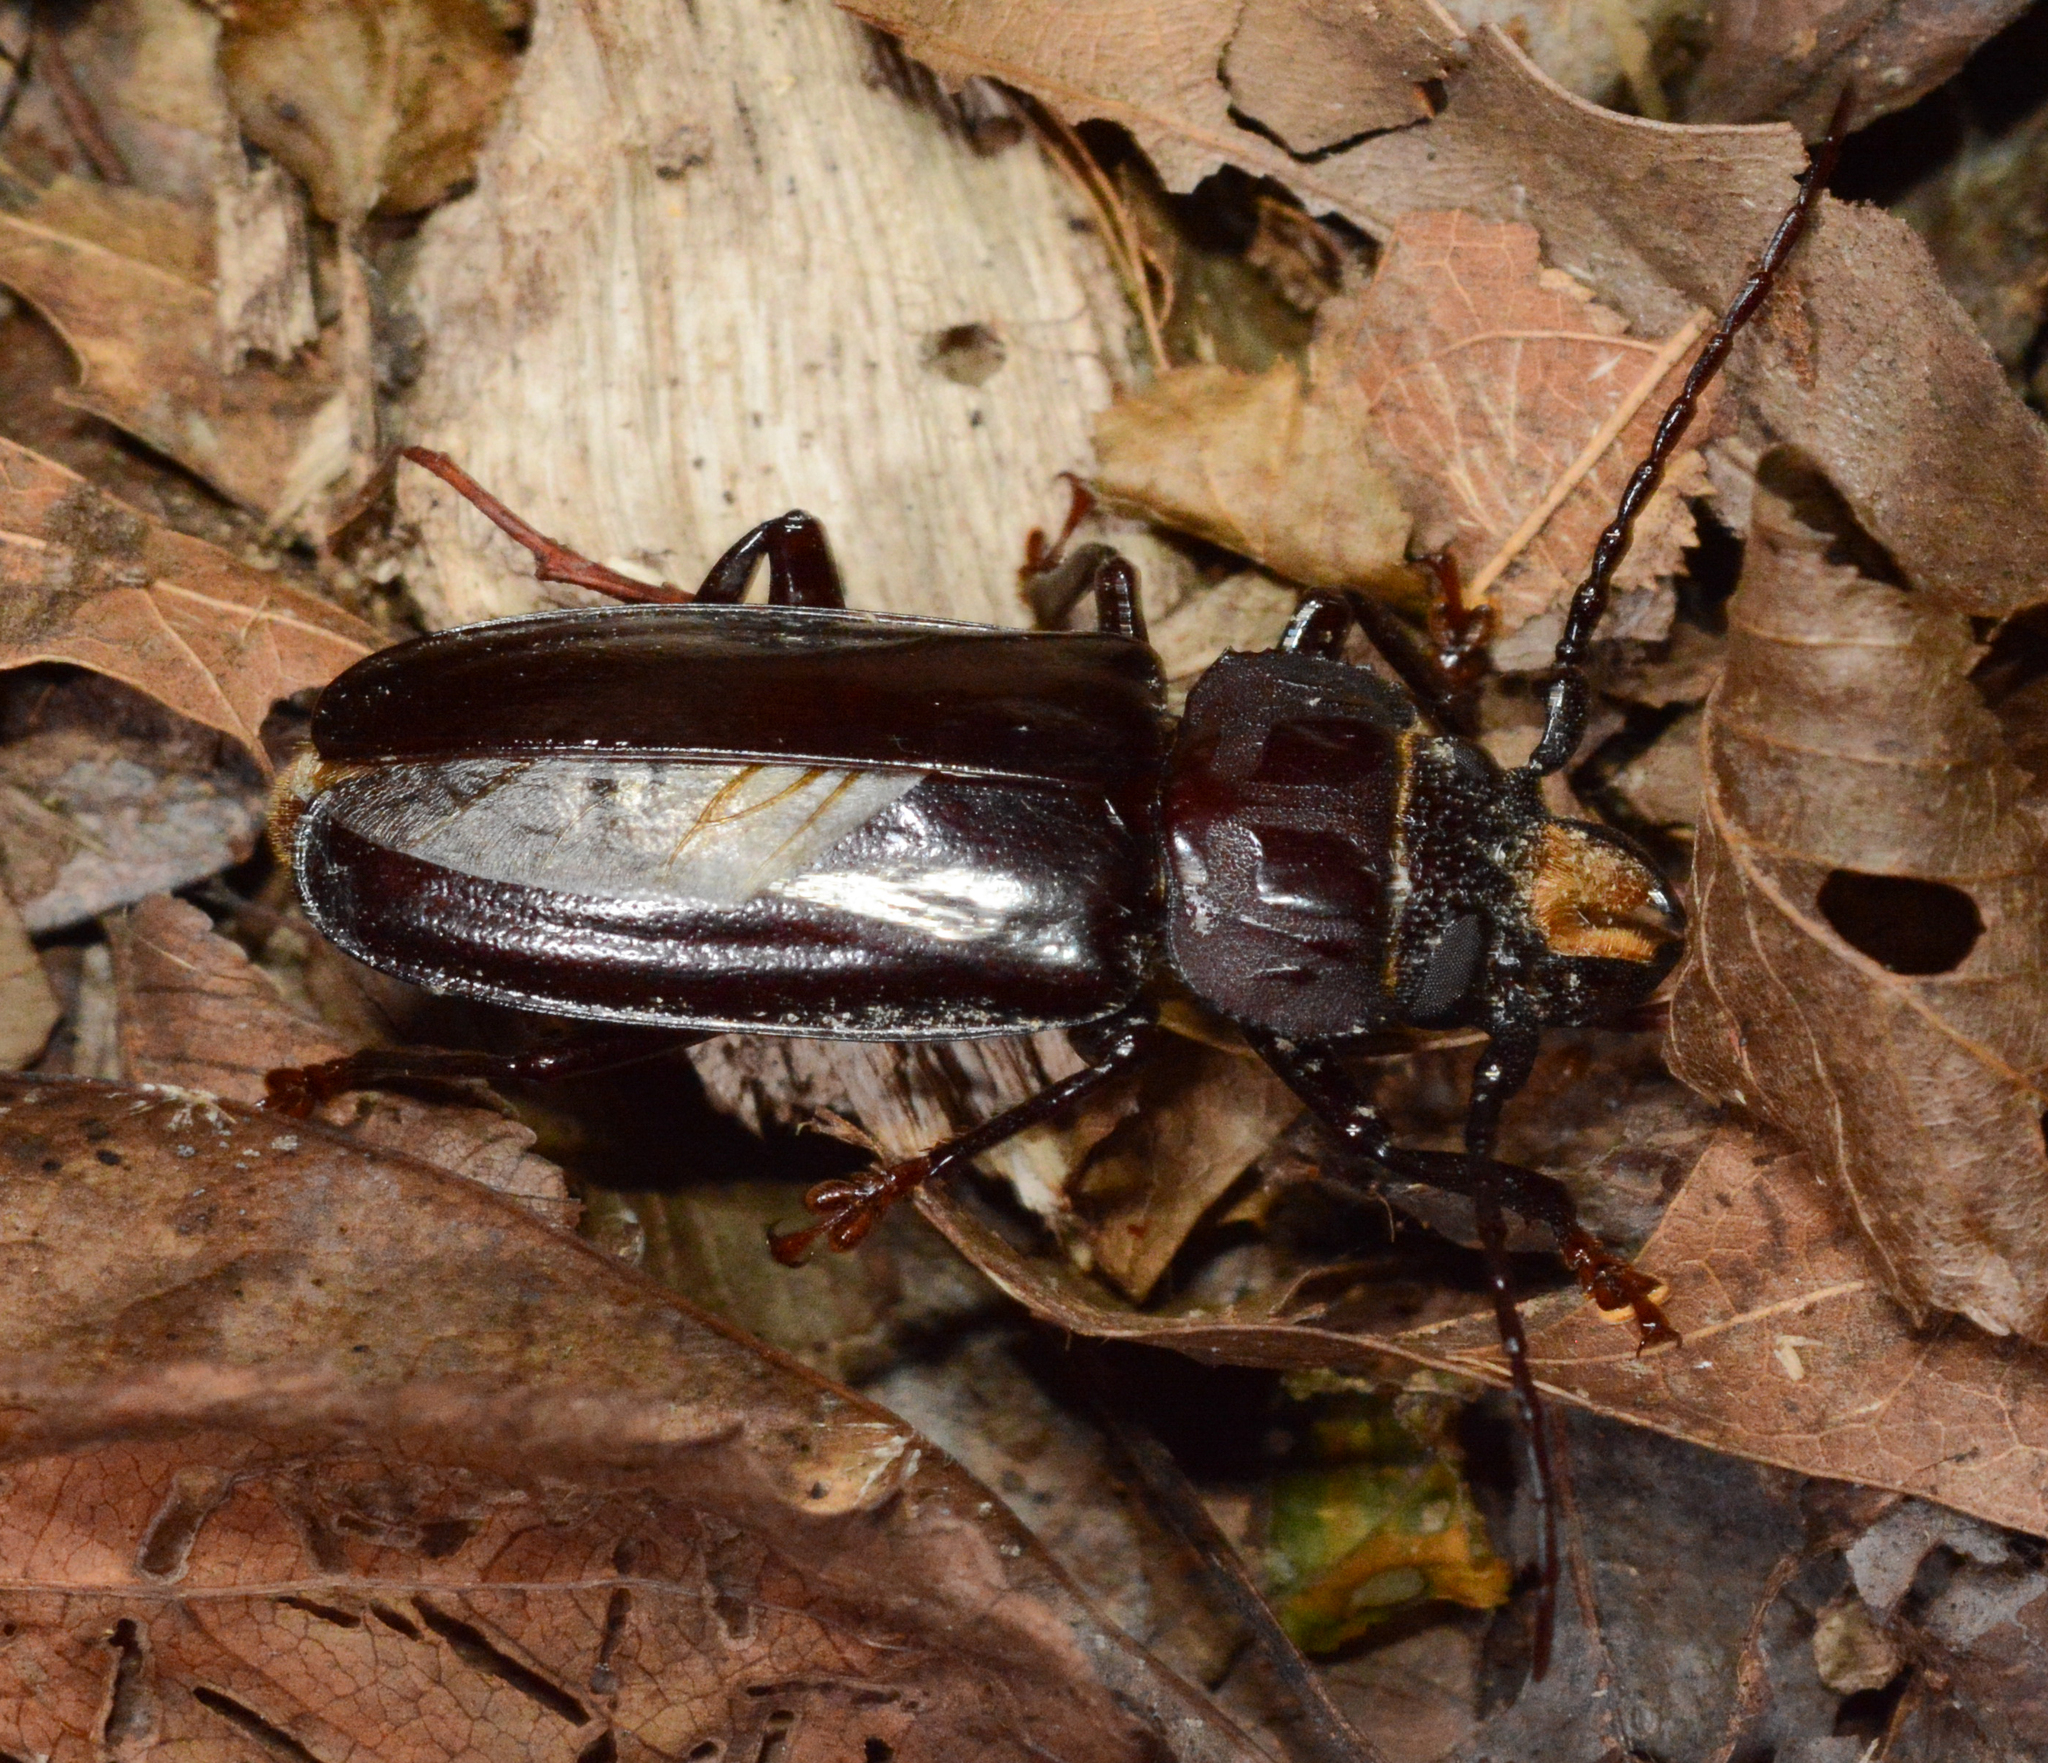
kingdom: Animalia
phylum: Arthropoda
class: Insecta
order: Coleoptera
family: Cerambycidae
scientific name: Cerambycidae
